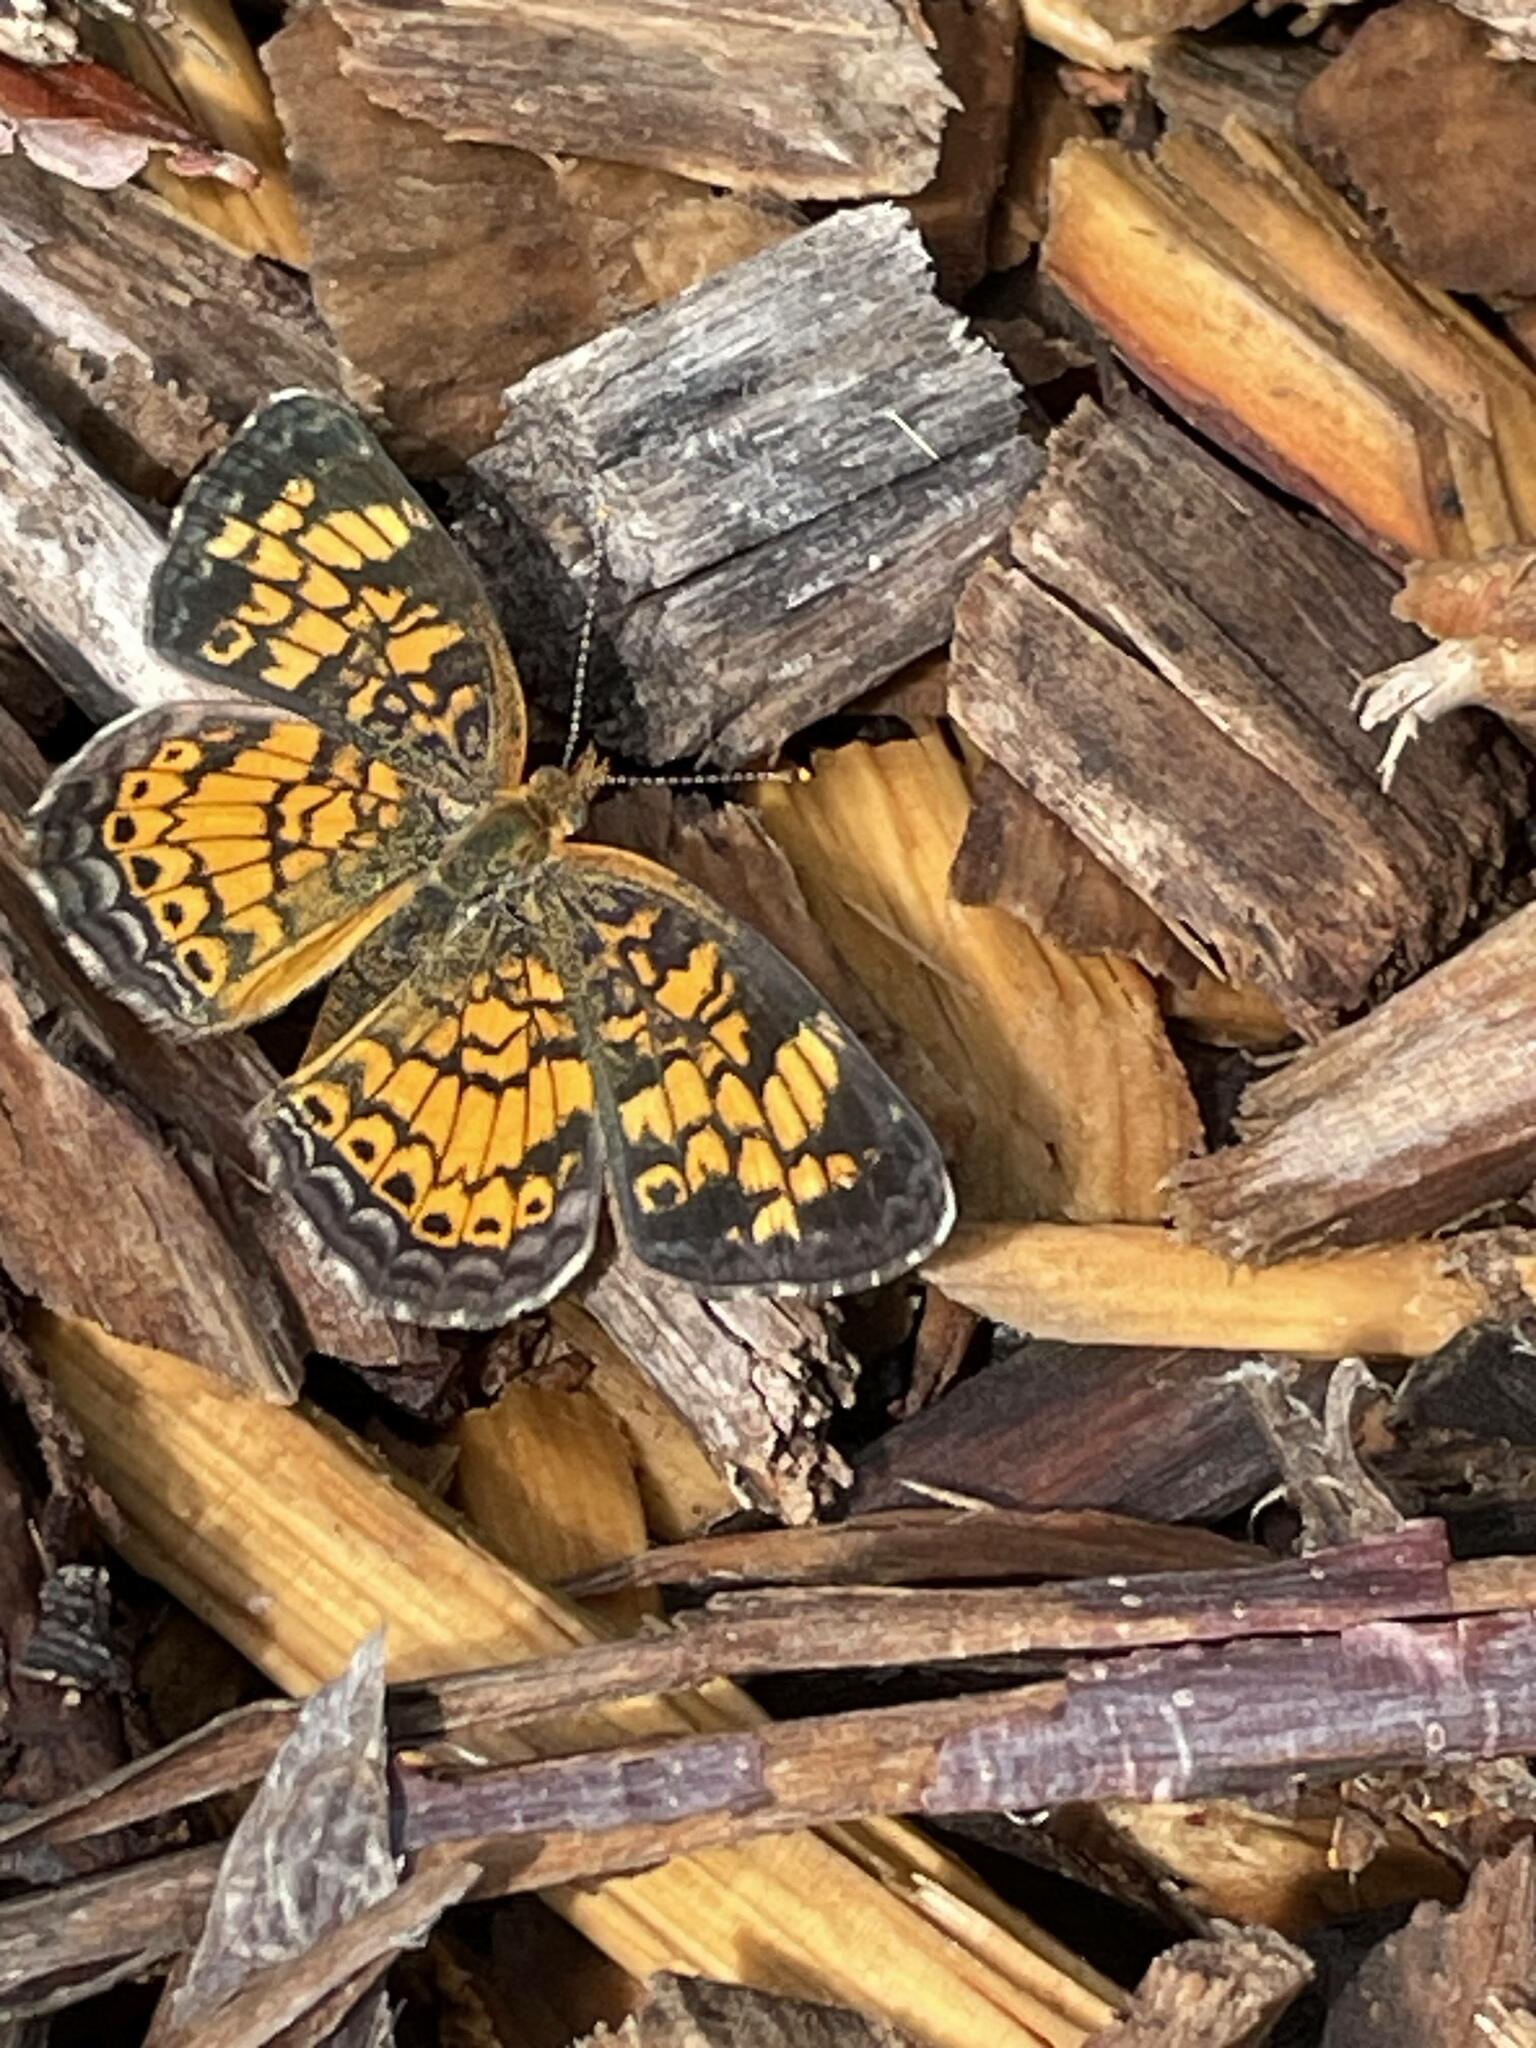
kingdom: Animalia
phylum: Arthropoda
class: Insecta
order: Lepidoptera
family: Nymphalidae
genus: Phyciodes
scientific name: Phyciodes tharos
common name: Pearl crescent
